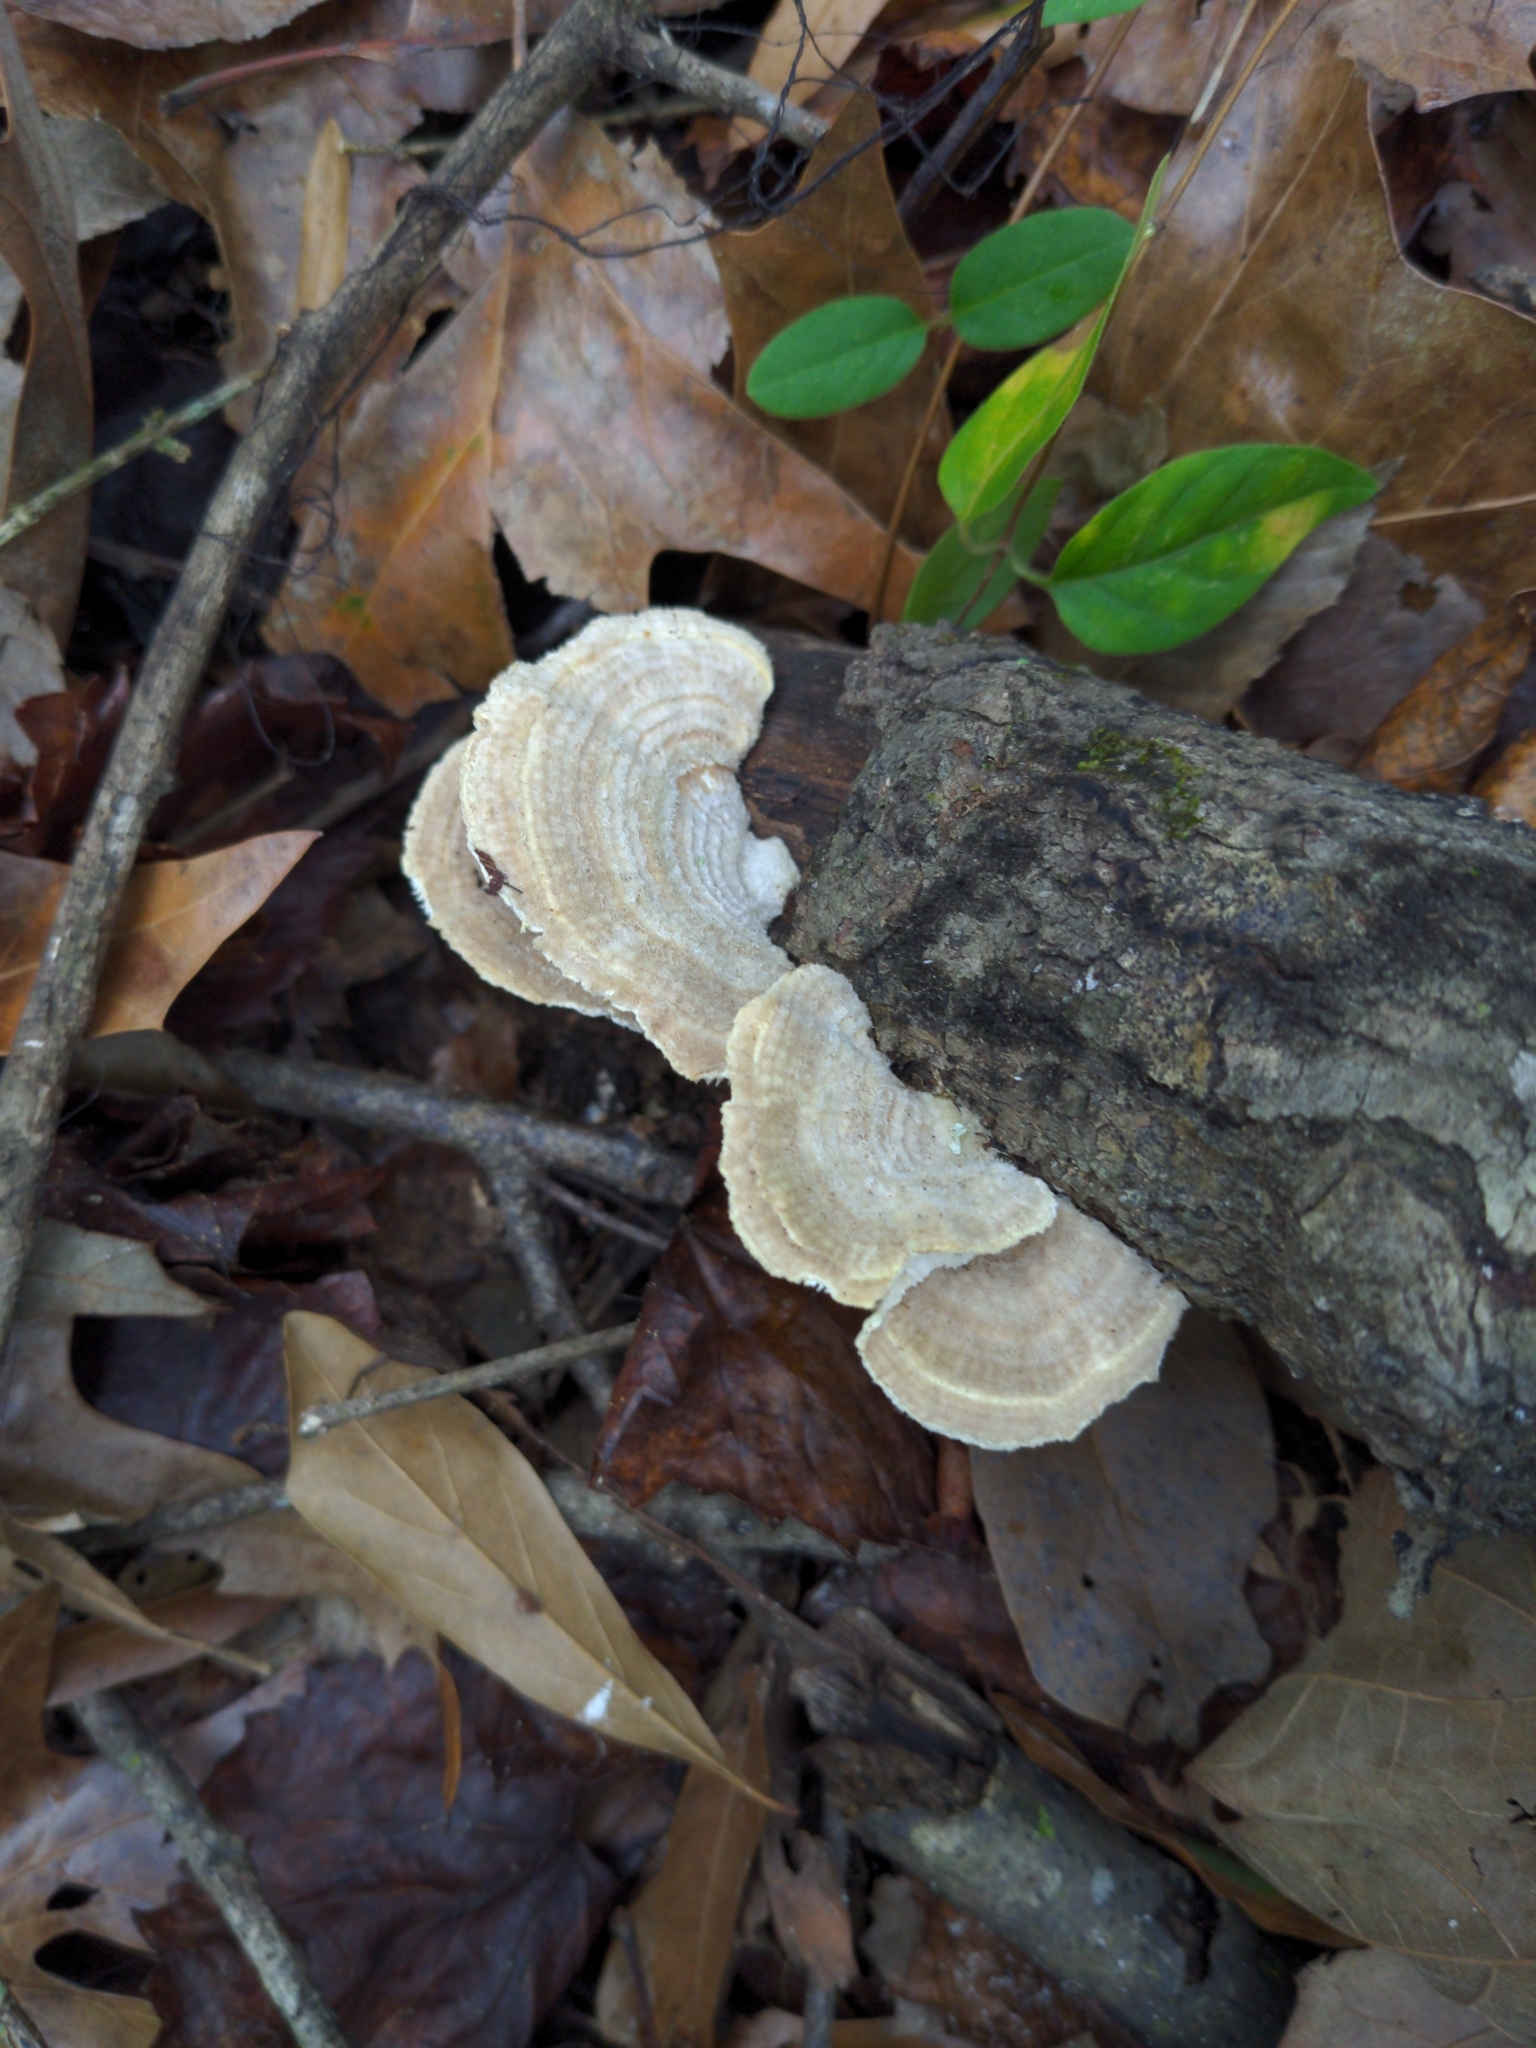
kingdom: Fungi
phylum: Basidiomycota
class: Agaricomycetes
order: Polyporales
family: Polyporaceae
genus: Lenzites
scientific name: Lenzites betulinus
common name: Birch mazegill
